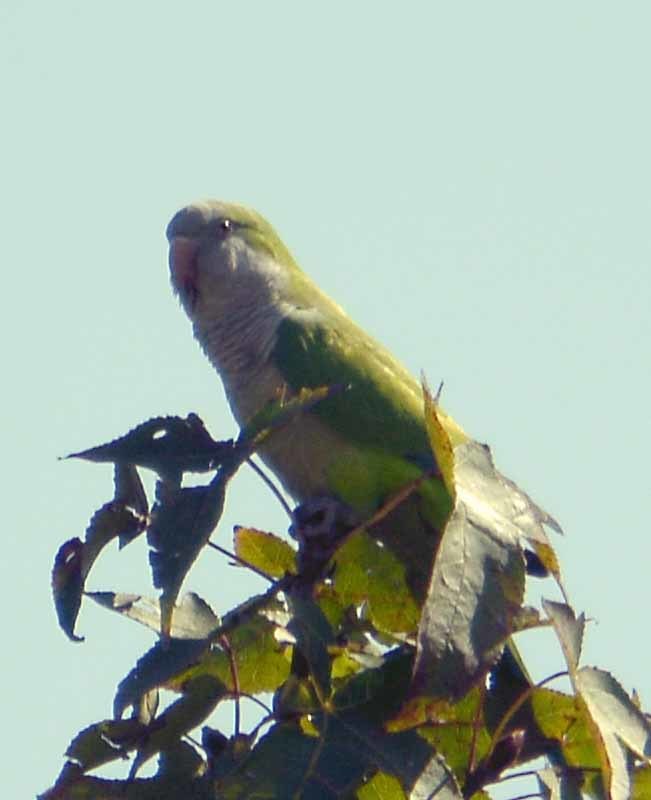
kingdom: Animalia
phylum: Chordata
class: Aves
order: Psittaciformes
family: Psittacidae
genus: Myiopsitta
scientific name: Myiopsitta monachus
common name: Monk parakeet
